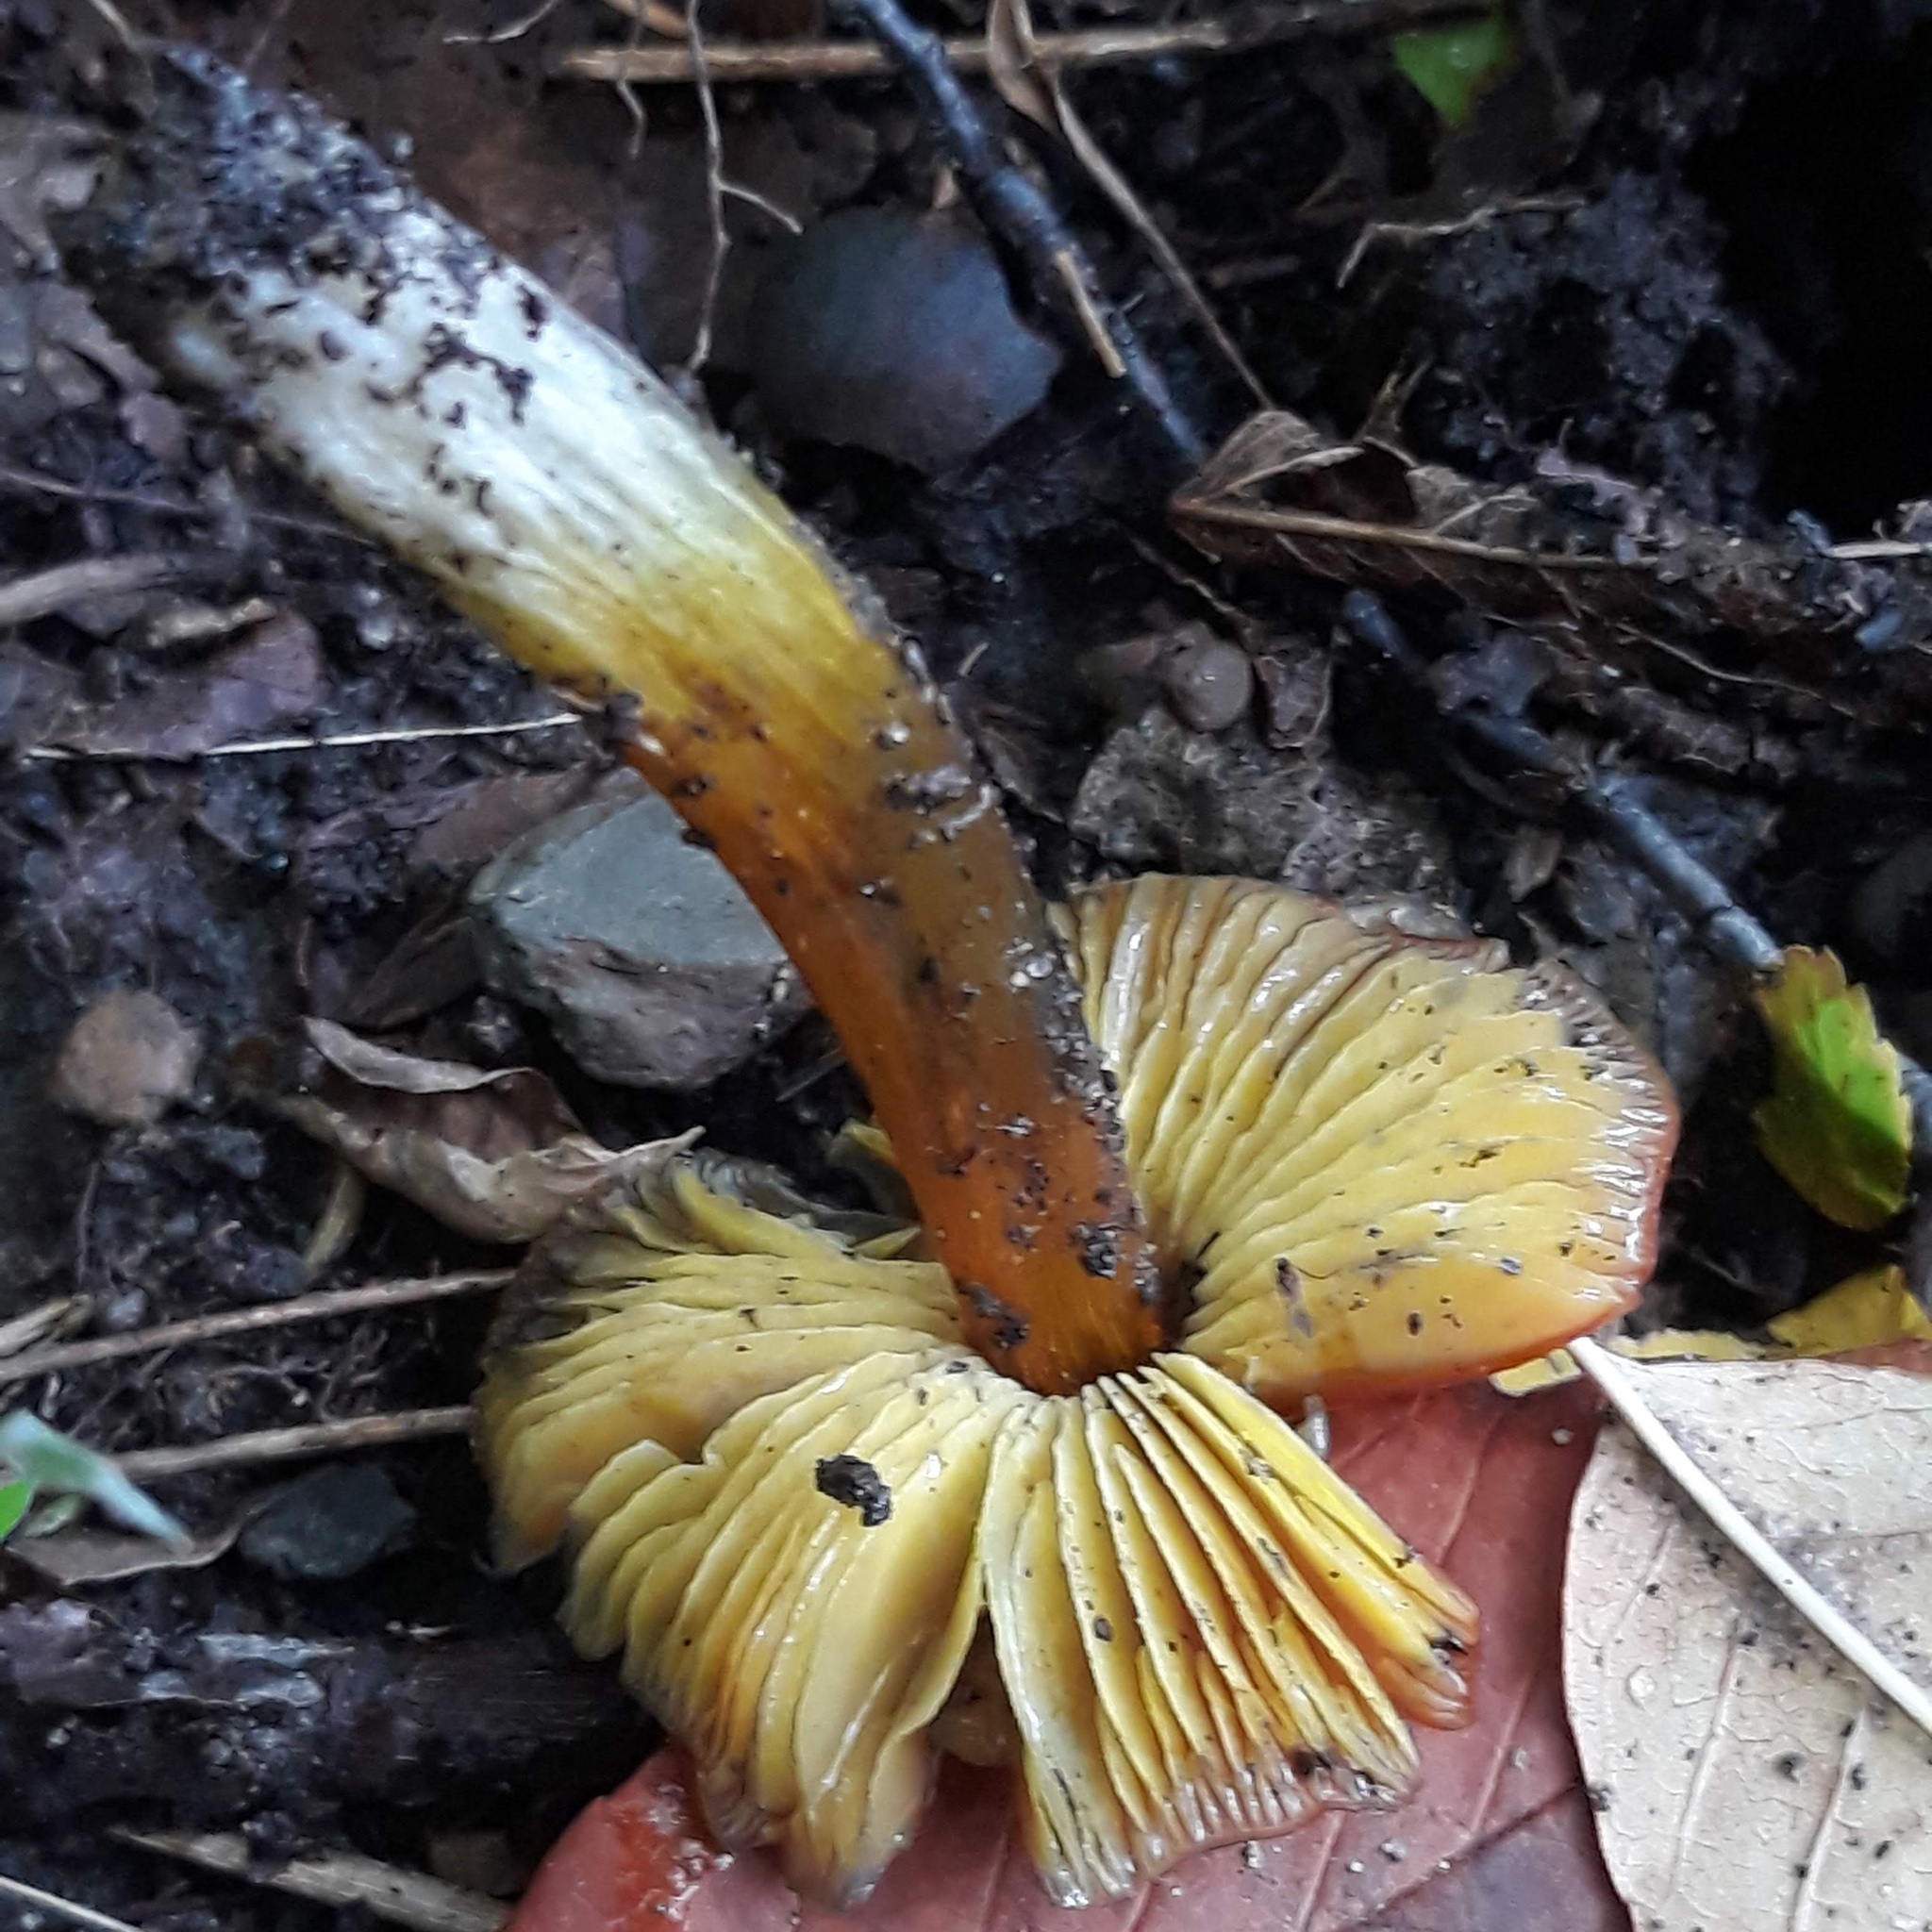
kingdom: Fungi
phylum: Basidiomycota
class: Agaricomycetes
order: Agaricales
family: Hygrophoraceae
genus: Hygrocybe
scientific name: Hygrocybe conica
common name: Blackening wax-cap
